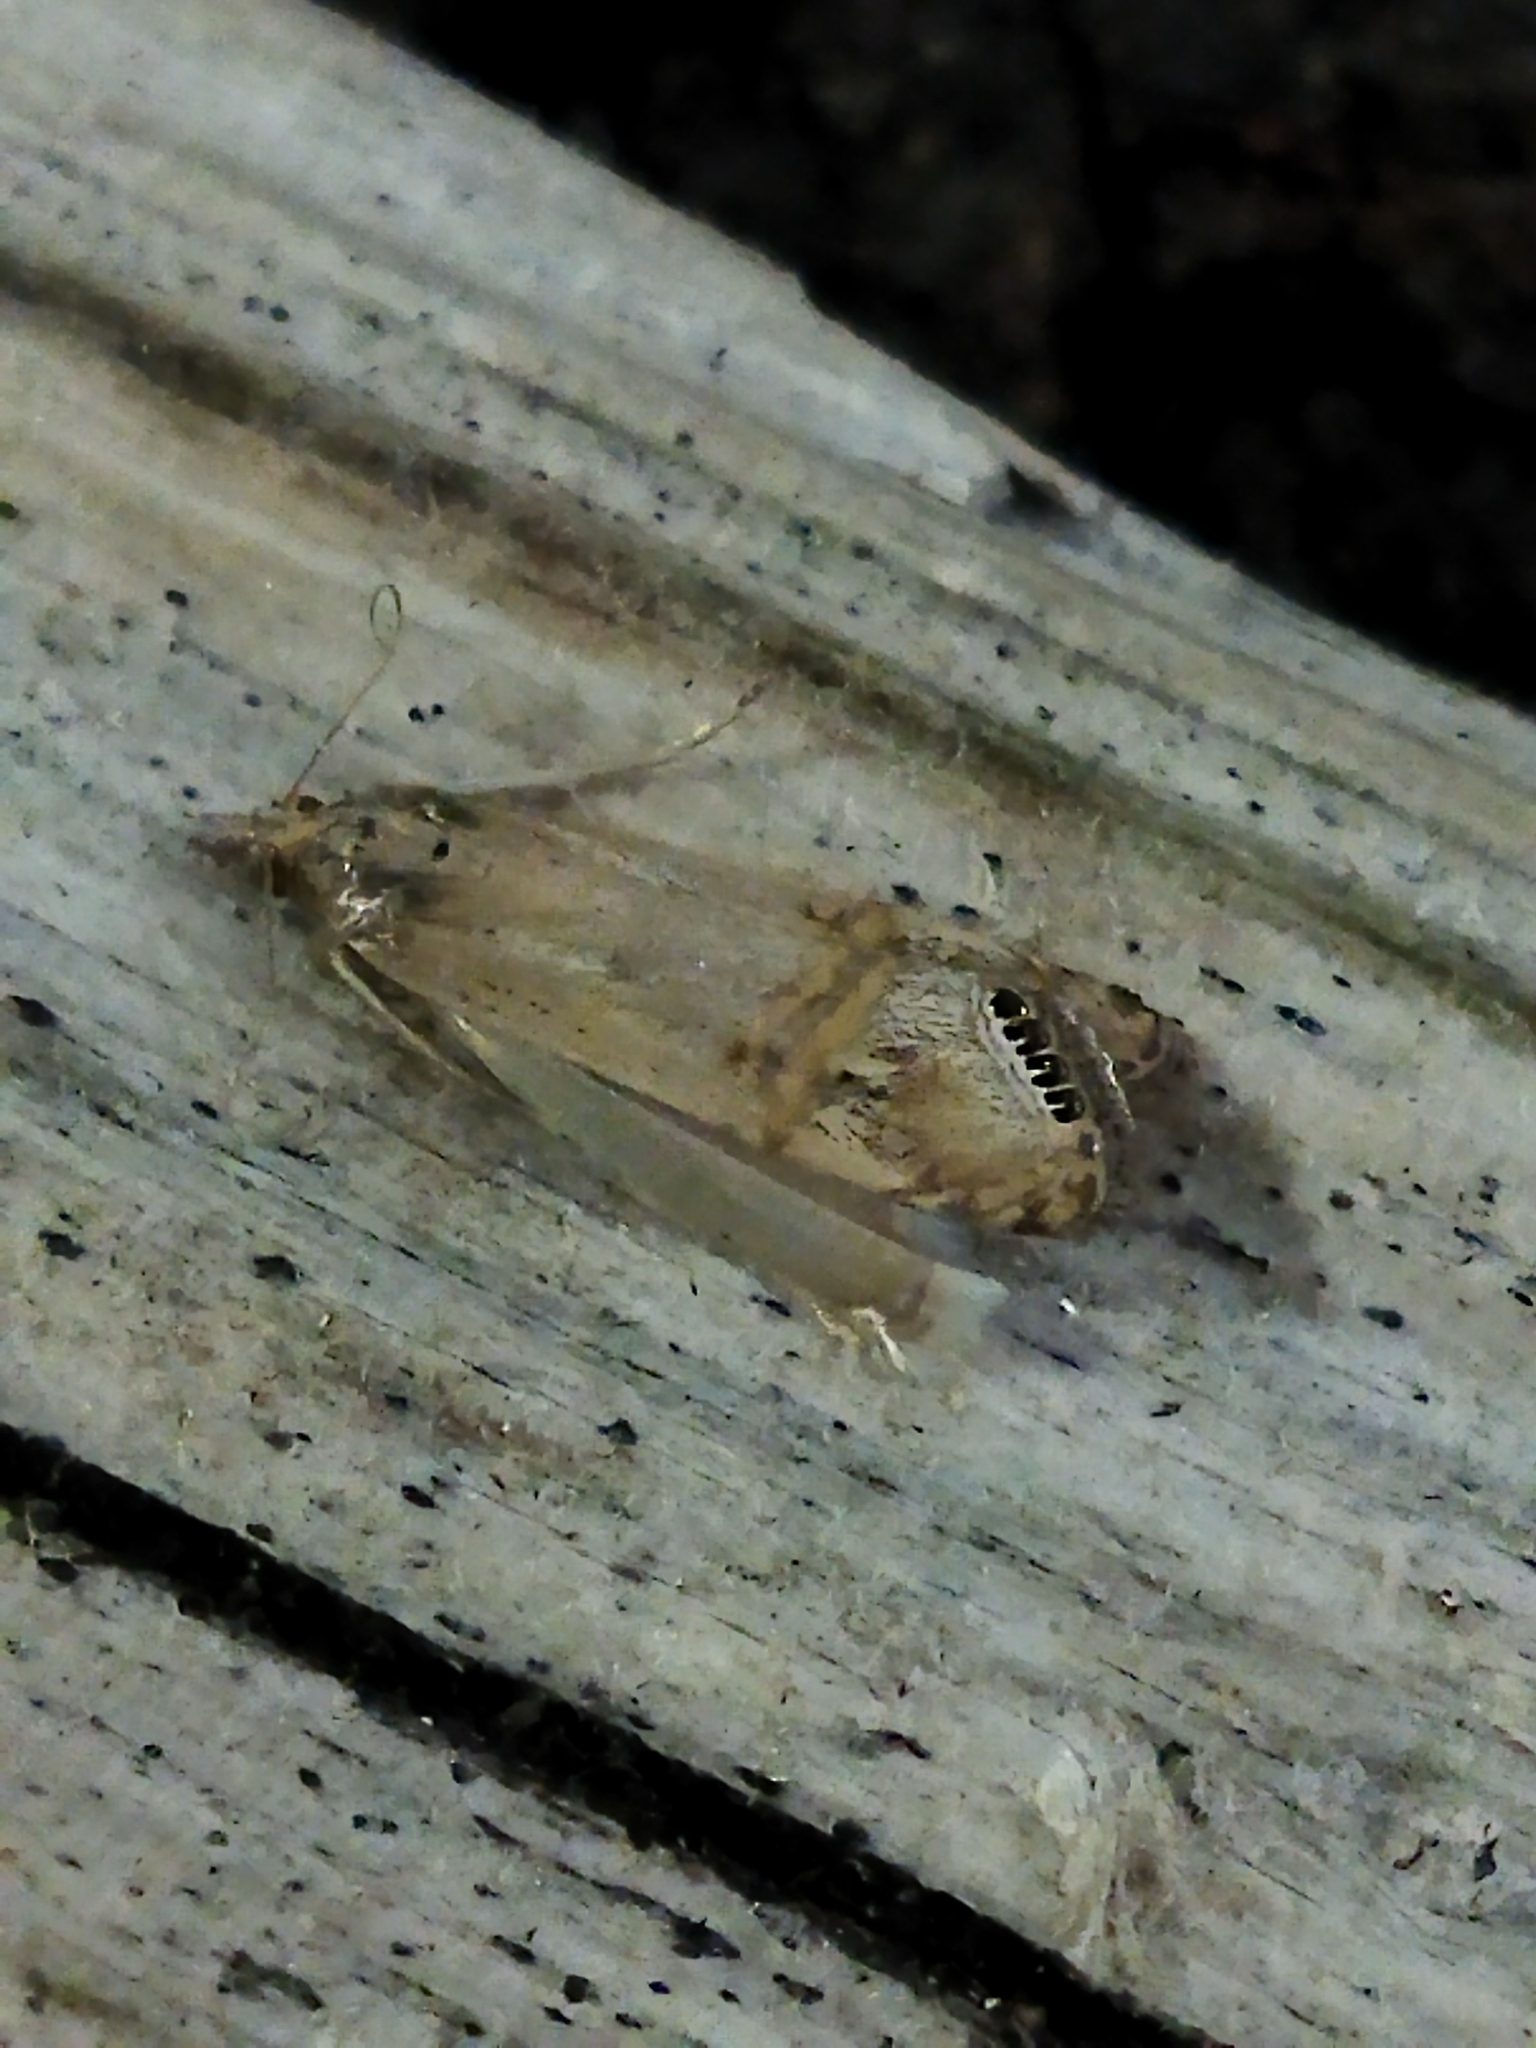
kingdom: Animalia
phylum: Arthropoda
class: Insecta
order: Lepidoptera
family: Crambidae
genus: Euchromius
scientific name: Euchromius ocellea
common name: Necklace veneer moth
